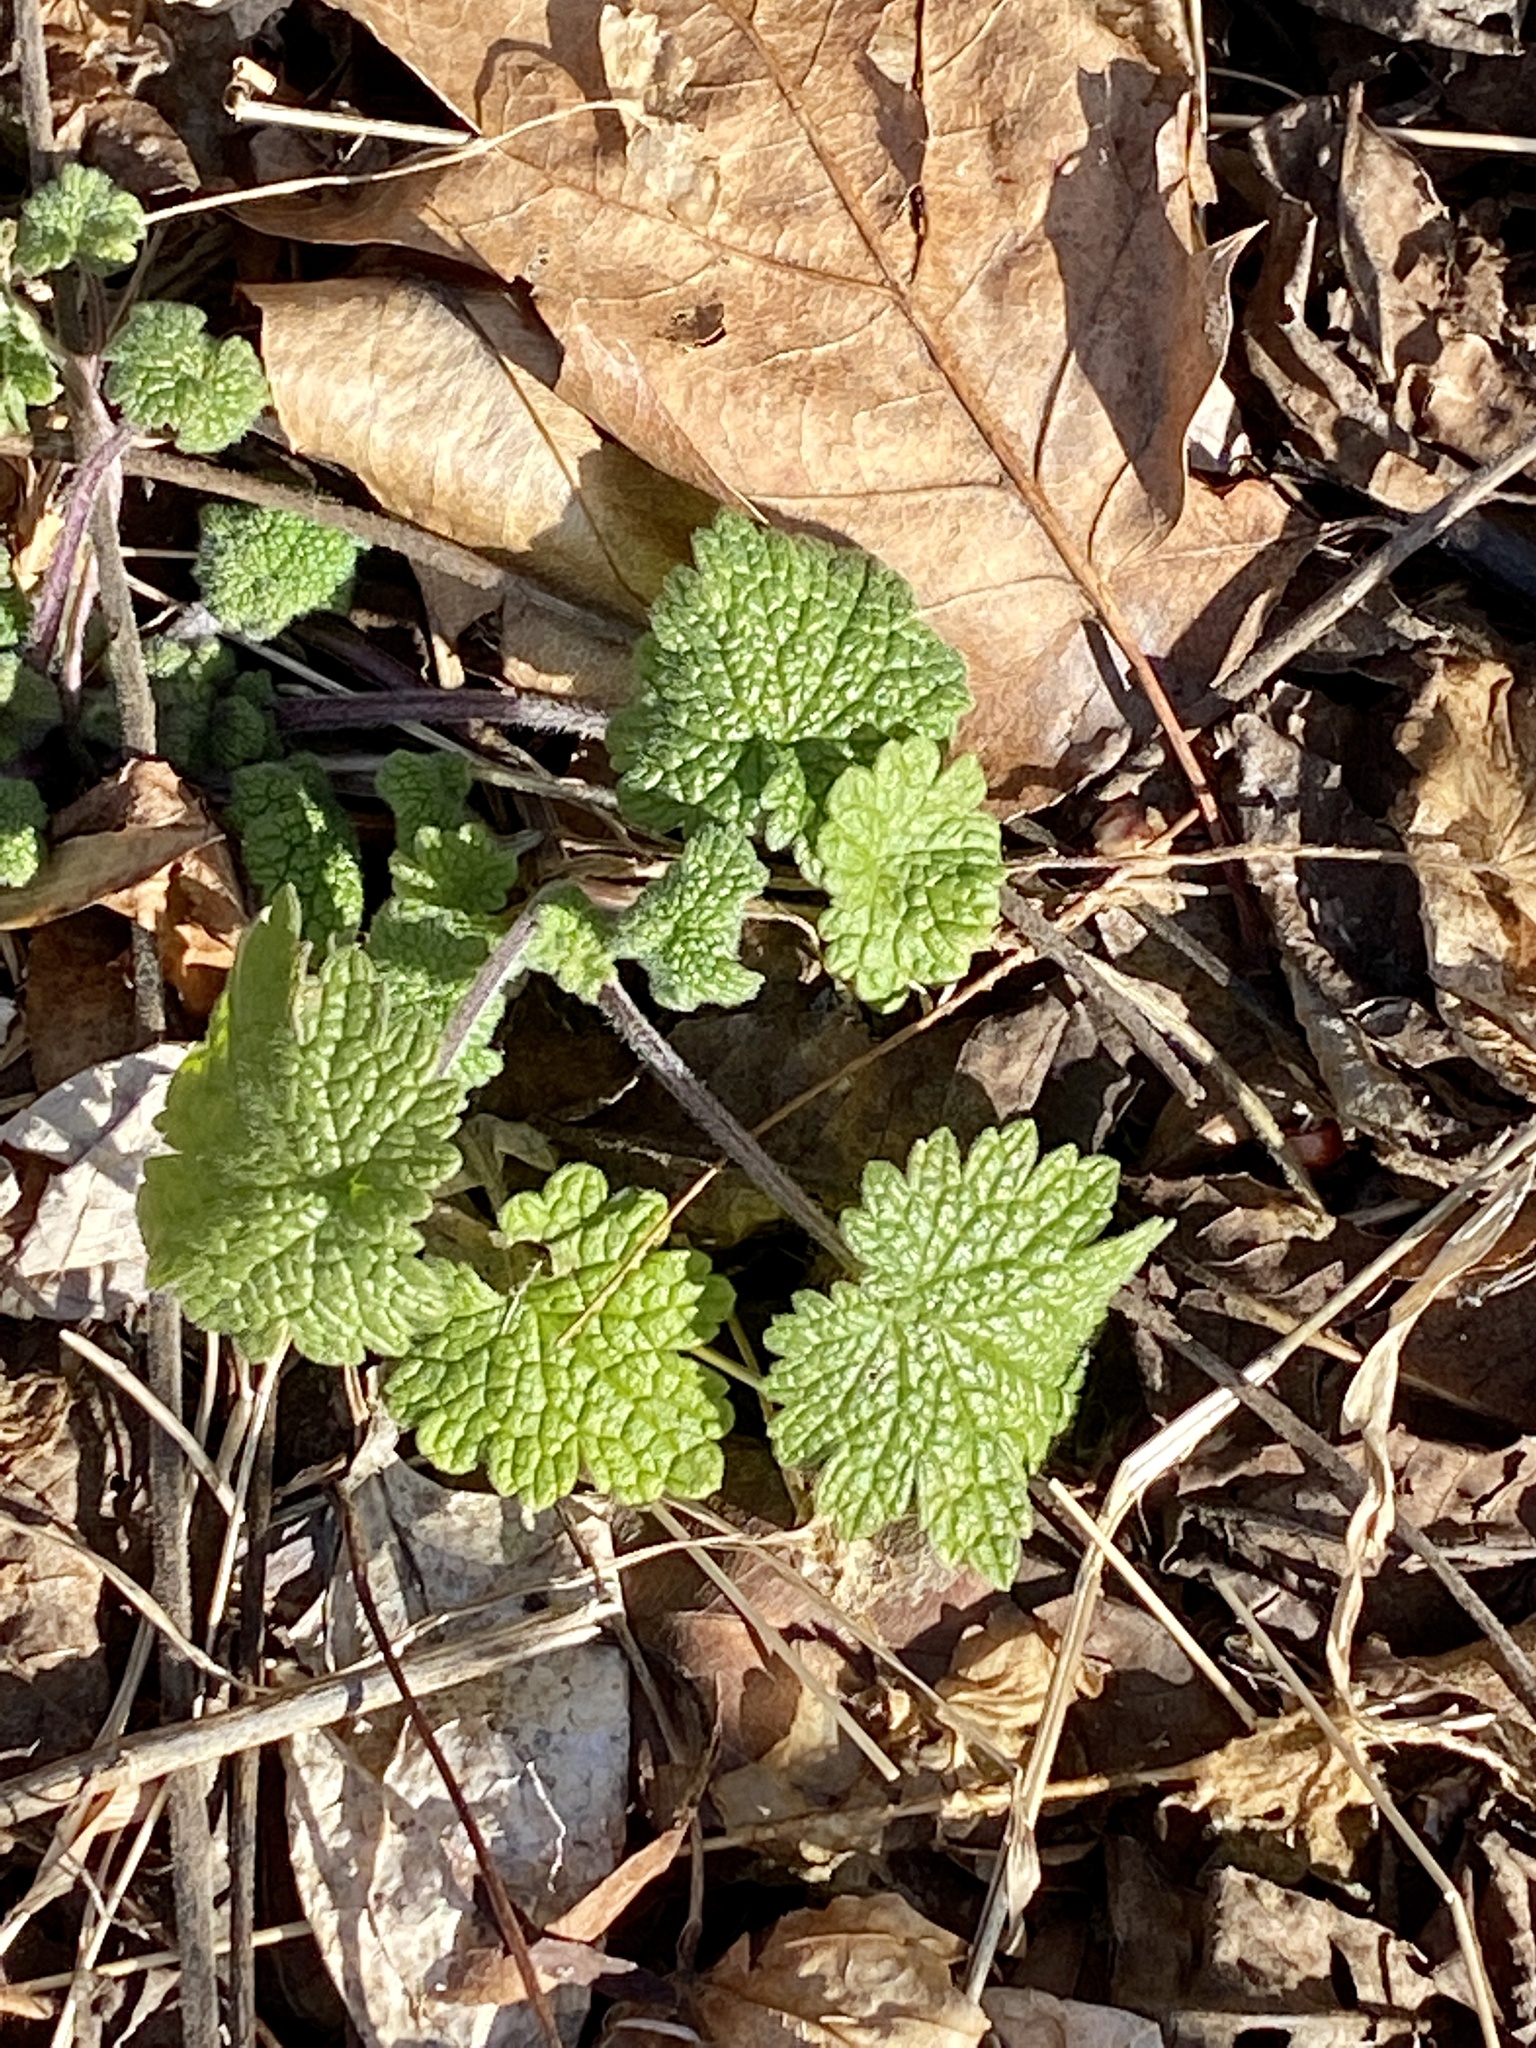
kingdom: Plantae
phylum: Tracheophyta
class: Magnoliopsida
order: Lamiales
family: Lamiaceae
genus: Leonurus
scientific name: Leonurus cardiaca
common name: Motherwort
